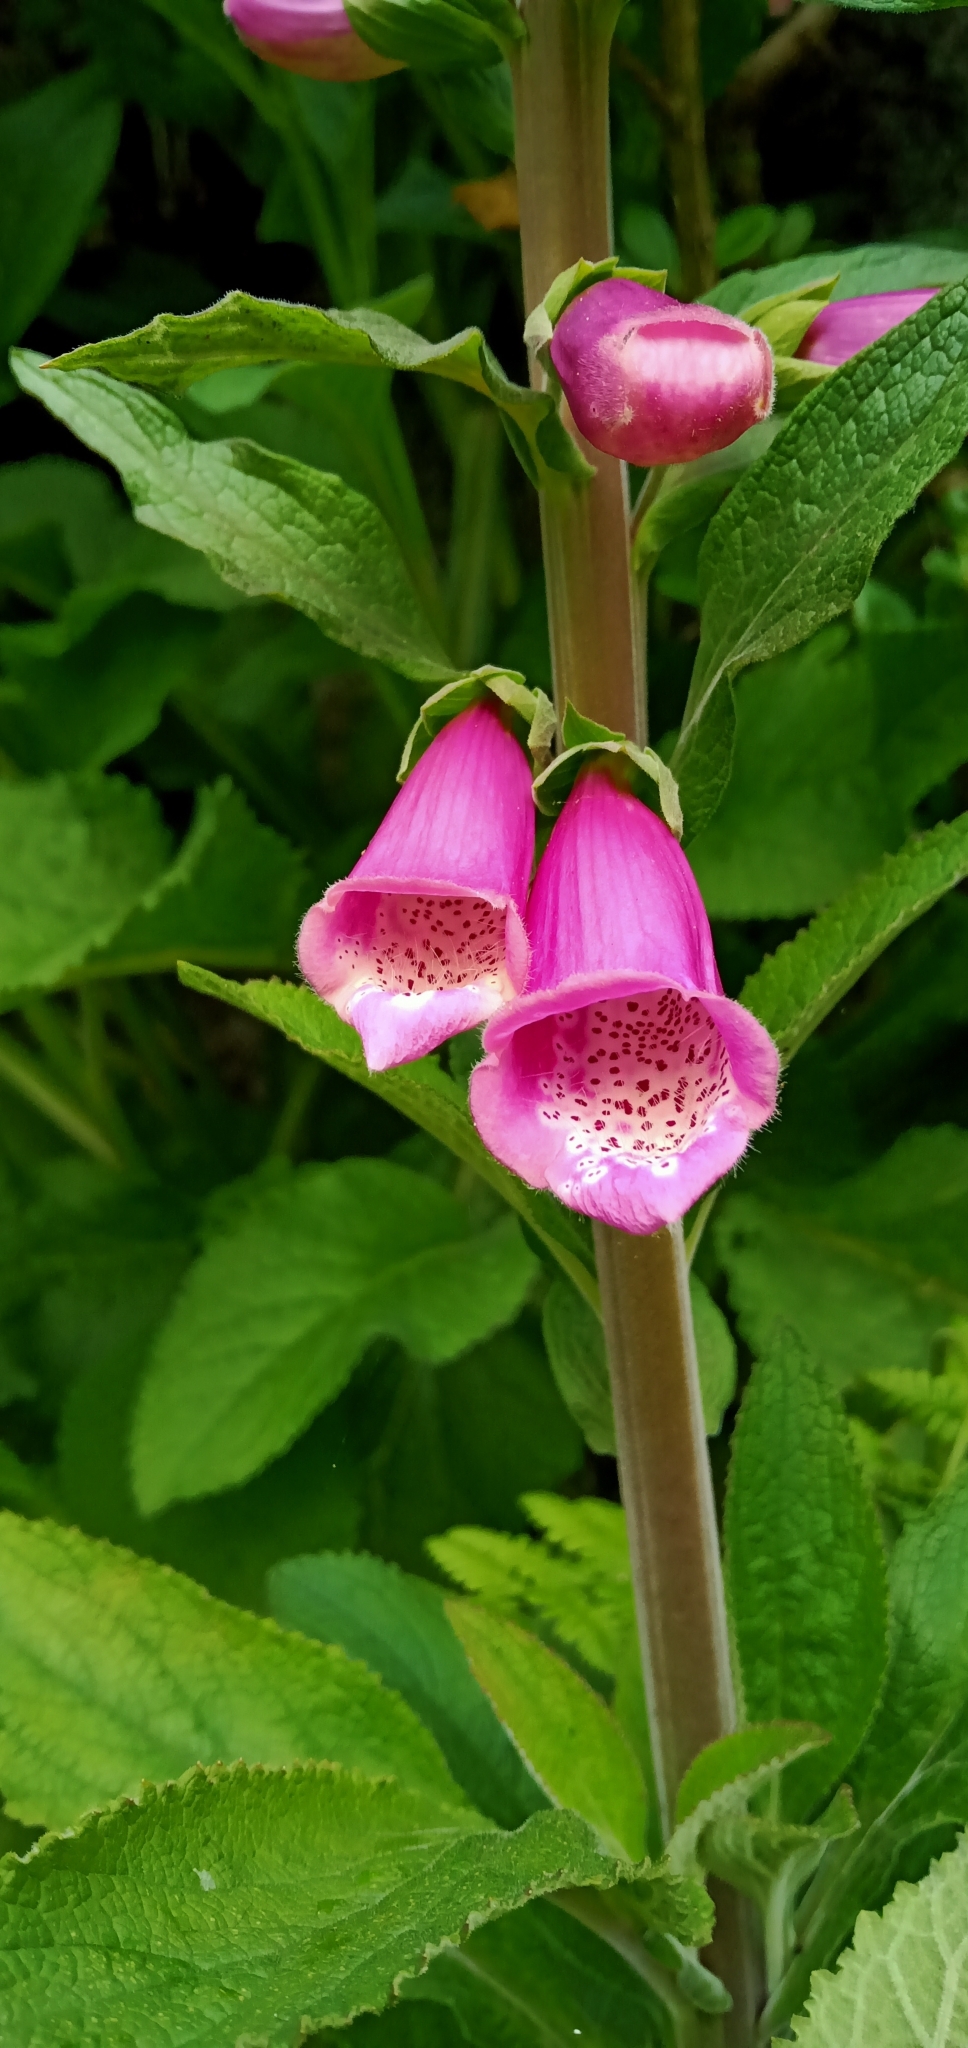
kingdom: Plantae
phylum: Tracheophyta
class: Magnoliopsida
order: Lamiales
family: Plantaginaceae
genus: Digitalis
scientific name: Digitalis purpurea
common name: Foxglove
